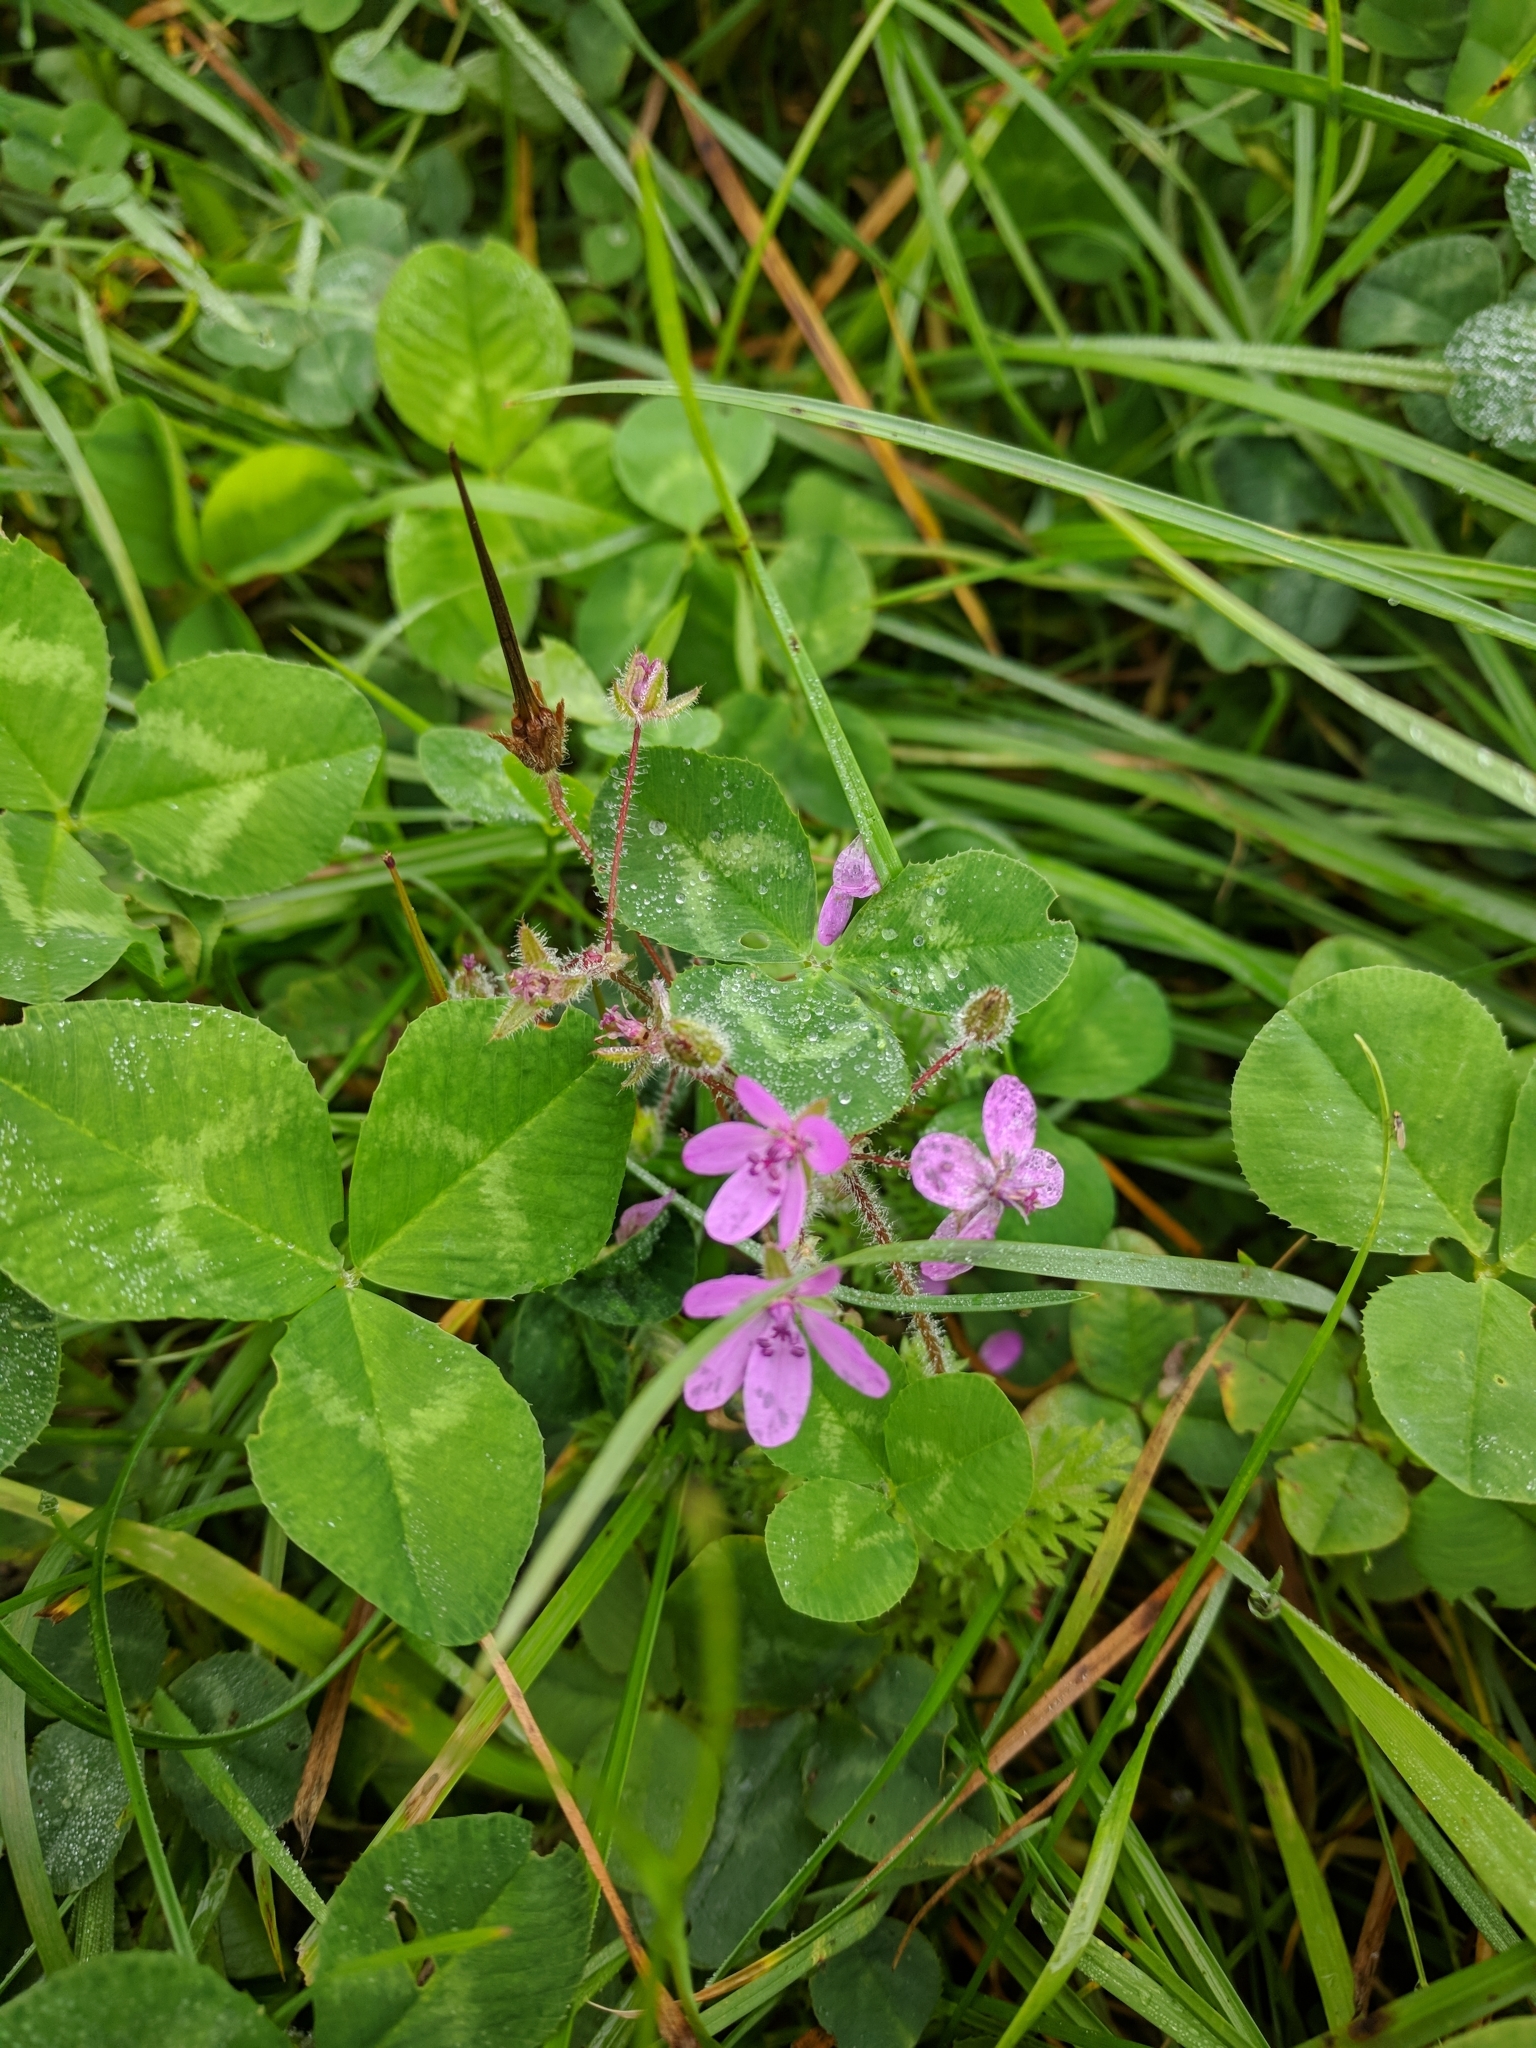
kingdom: Plantae
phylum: Tracheophyta
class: Magnoliopsida
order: Geraniales
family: Geraniaceae
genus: Erodium
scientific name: Erodium cicutarium
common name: Common stork's-bill
